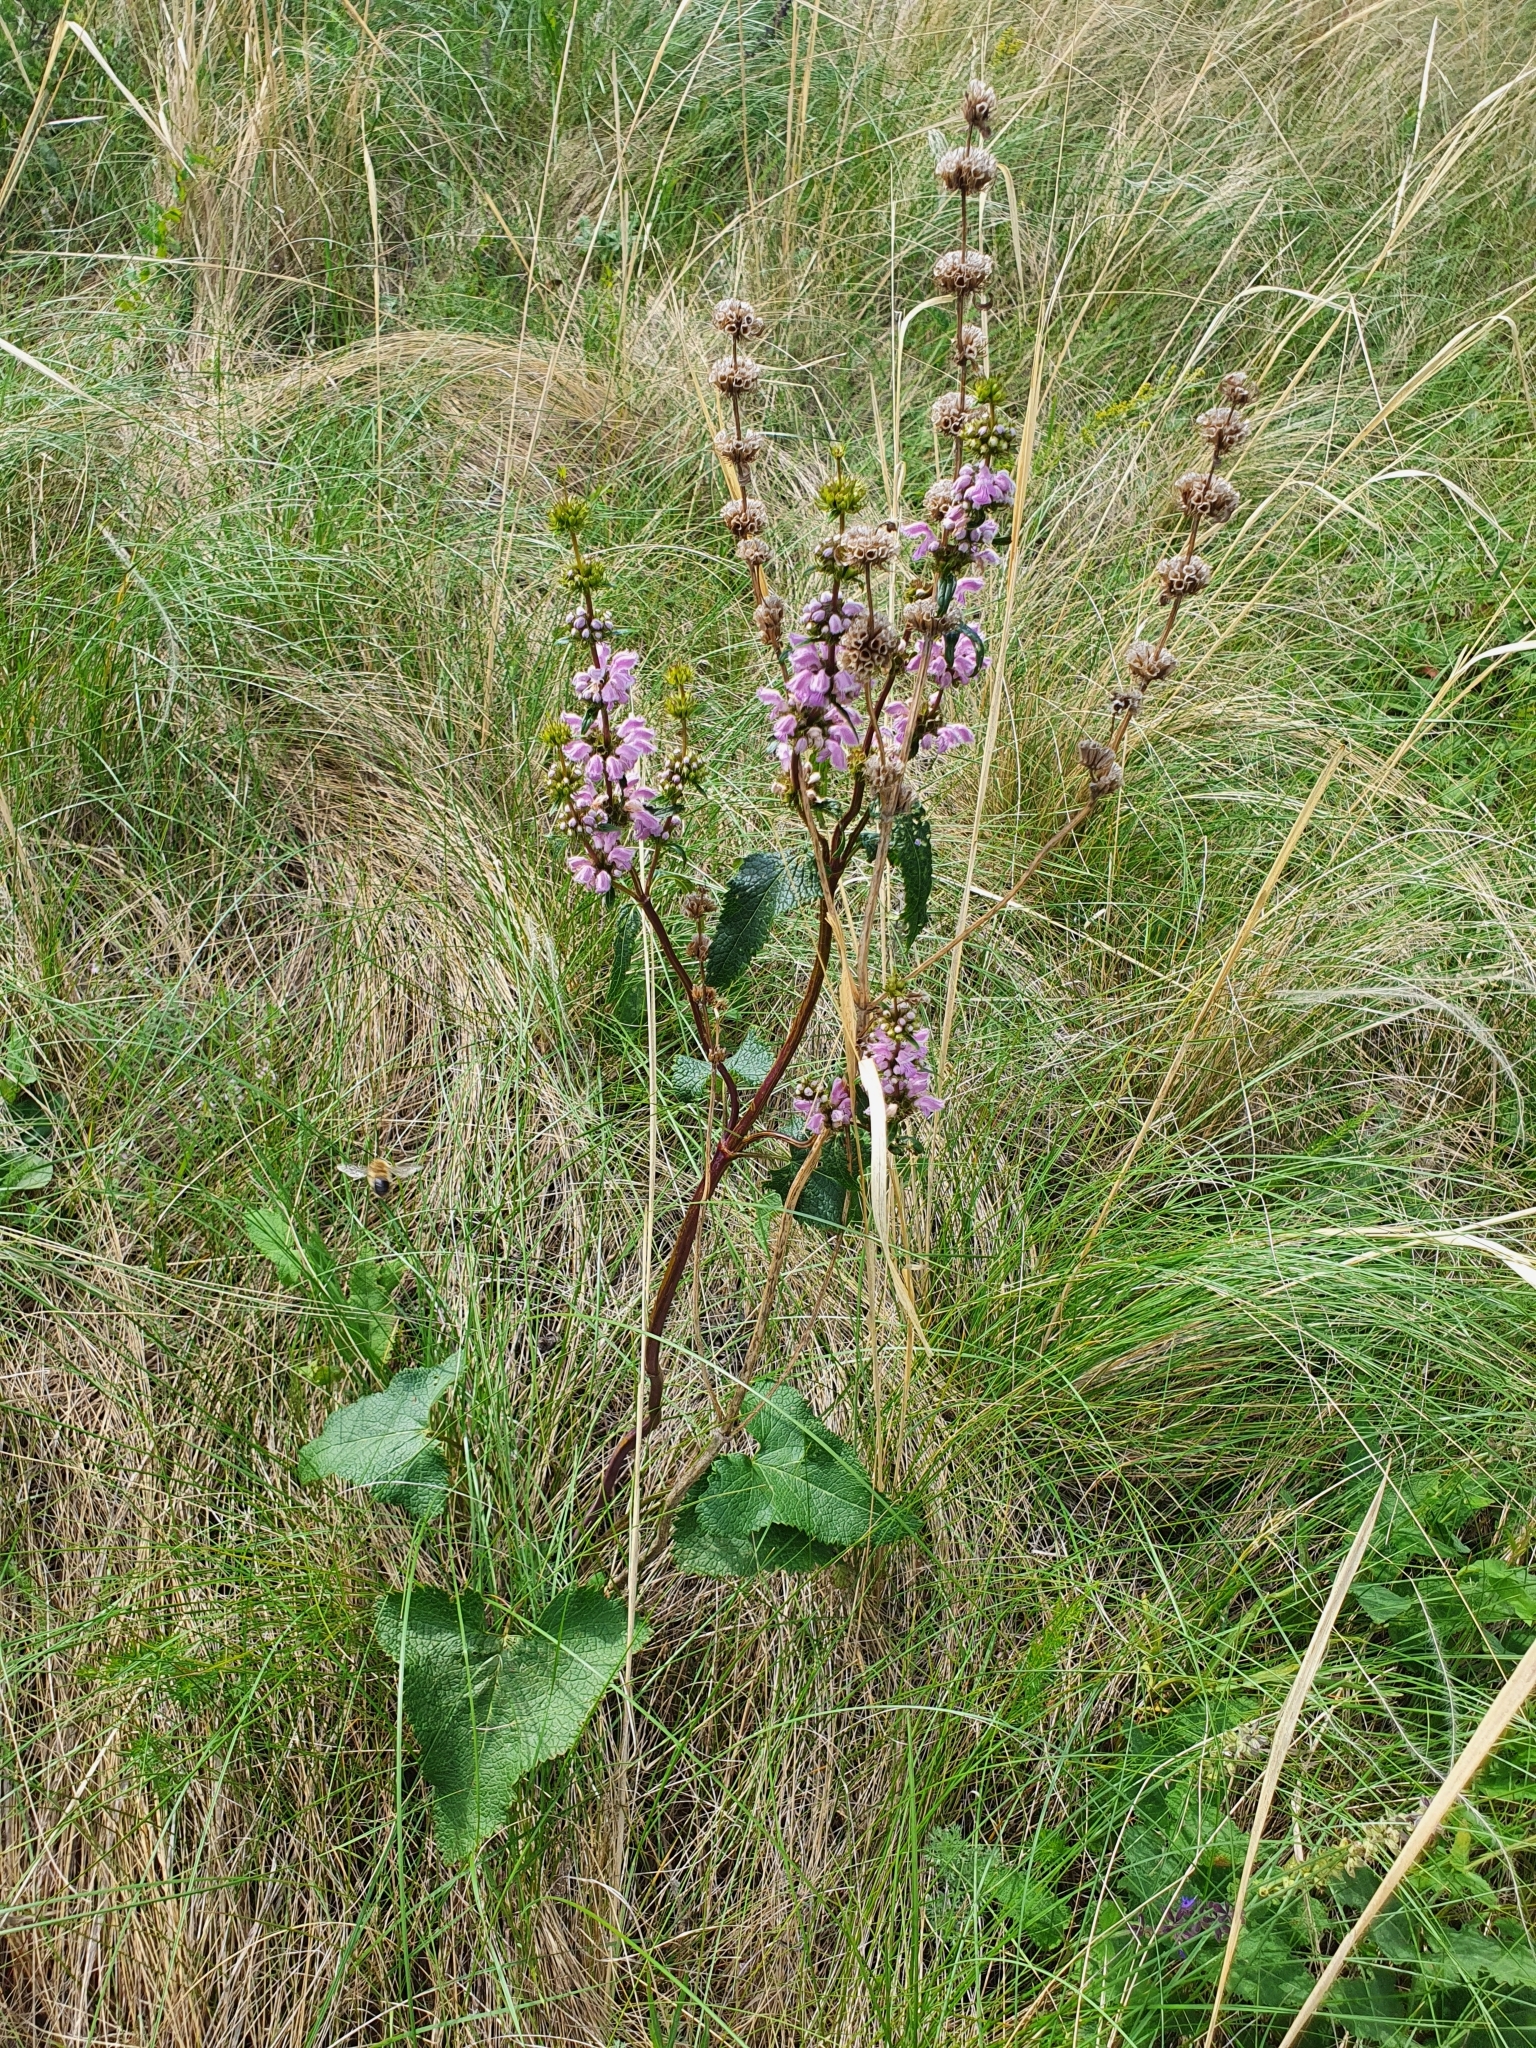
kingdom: Plantae
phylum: Tracheophyta
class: Magnoliopsida
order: Lamiales
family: Lamiaceae
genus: Phlomoides
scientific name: Phlomoides tuberosa
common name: Tuberous jerusalem sage
